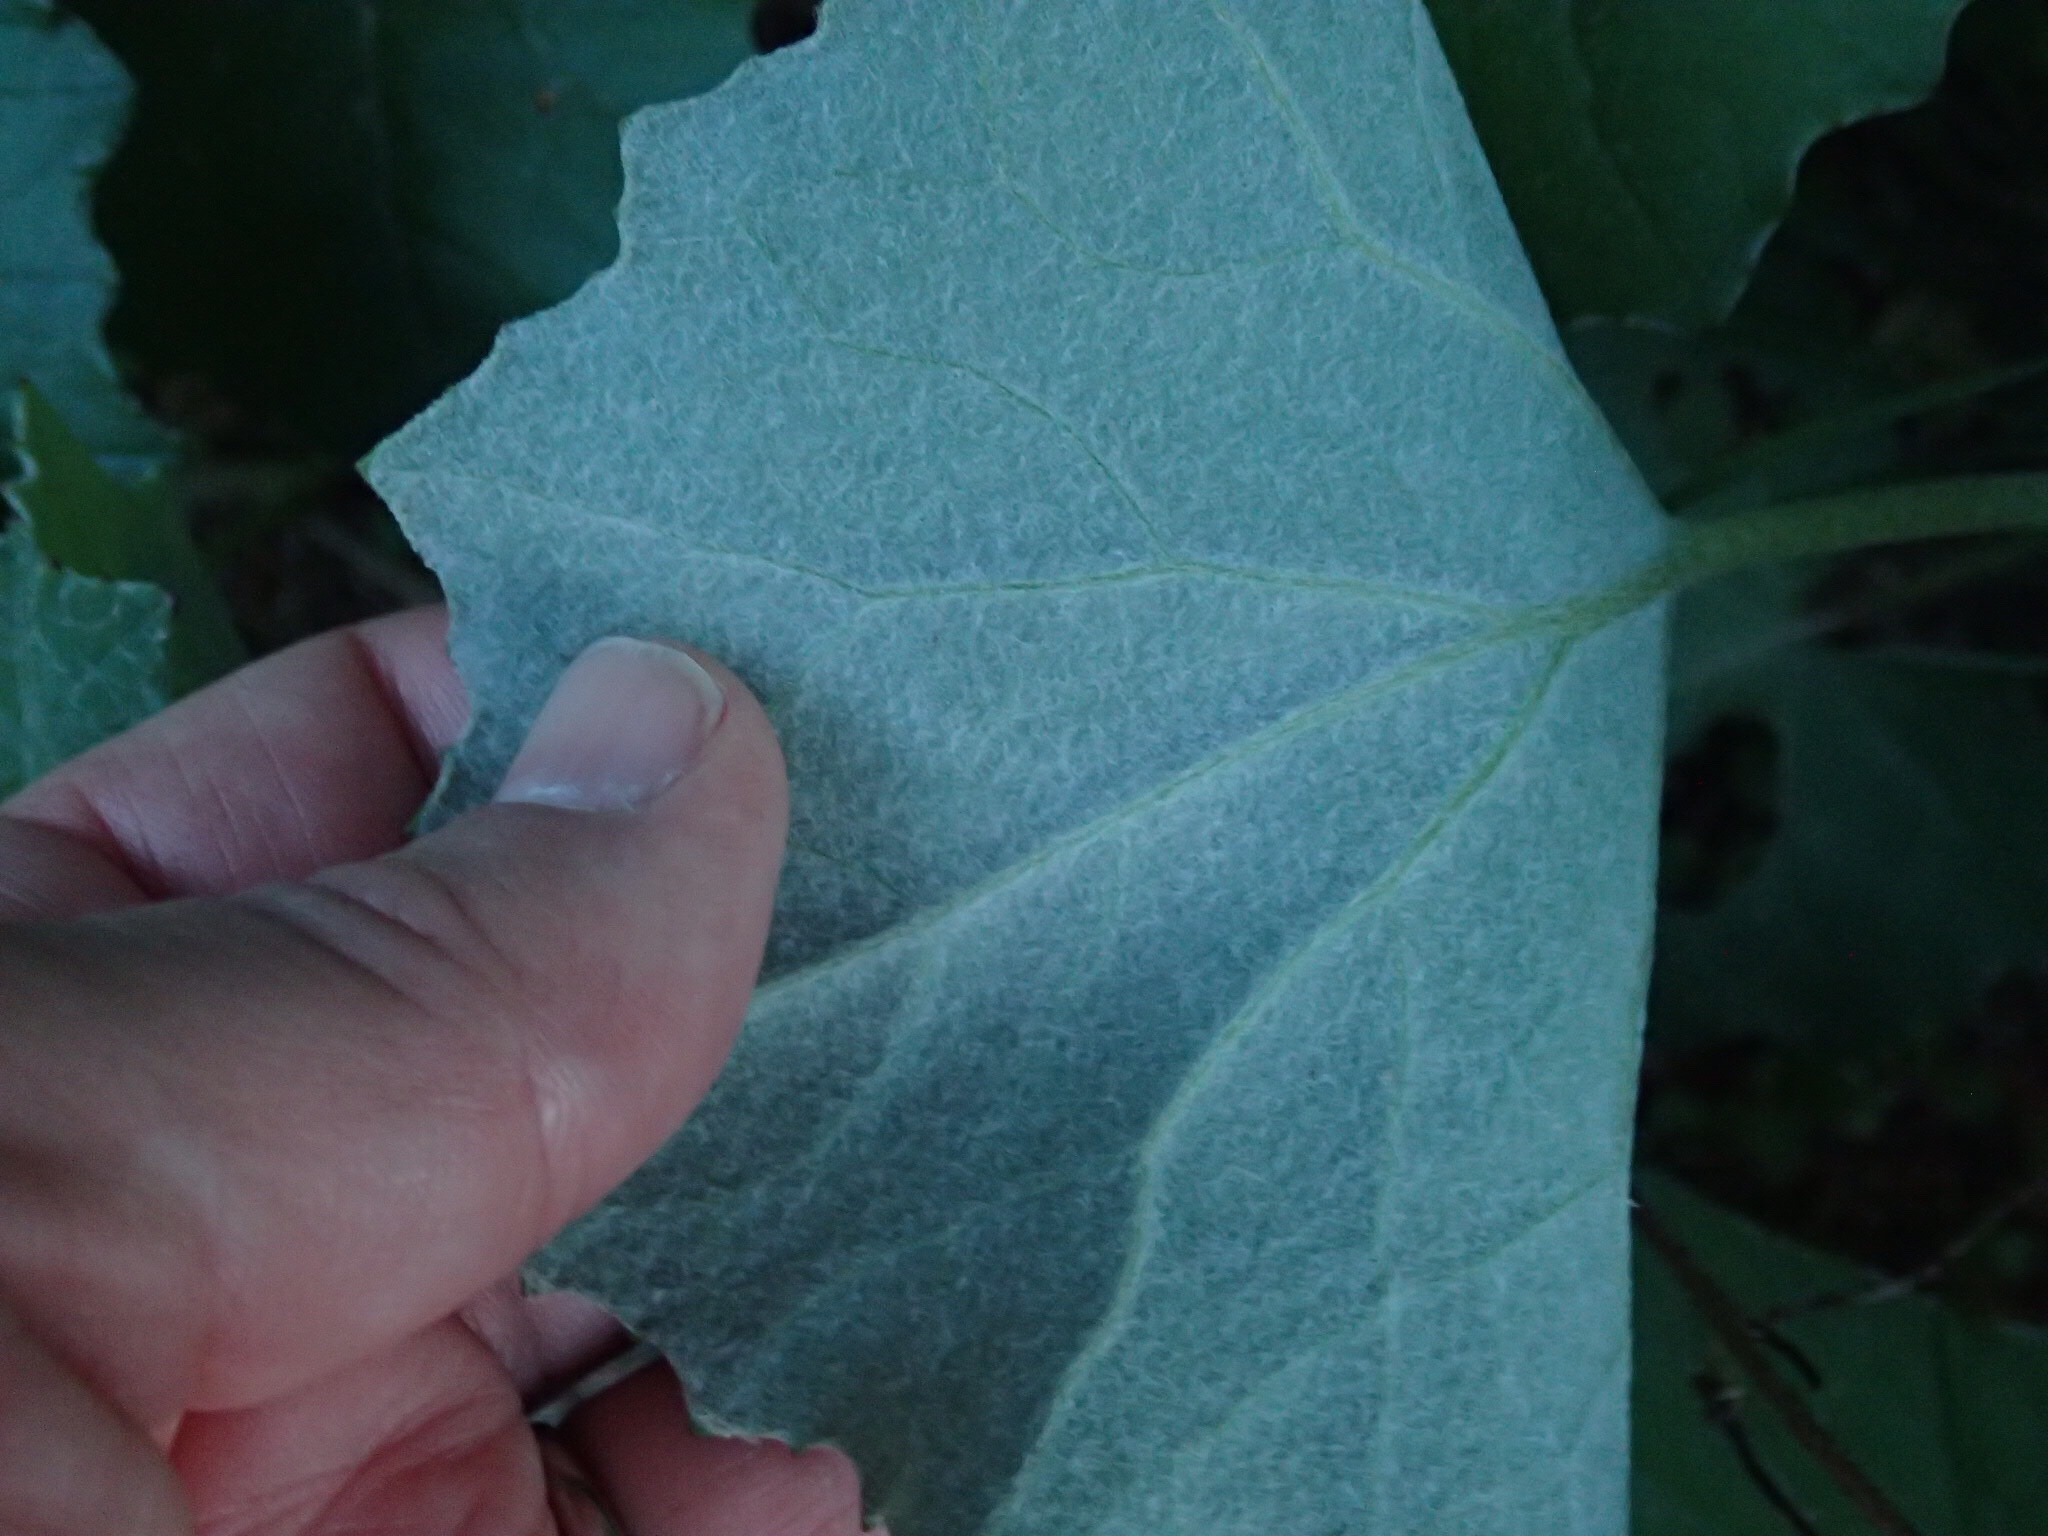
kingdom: Plantae
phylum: Tracheophyta
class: Magnoliopsida
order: Asterales
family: Asteraceae
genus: Tussilago
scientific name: Tussilago farfara
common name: Coltsfoot
